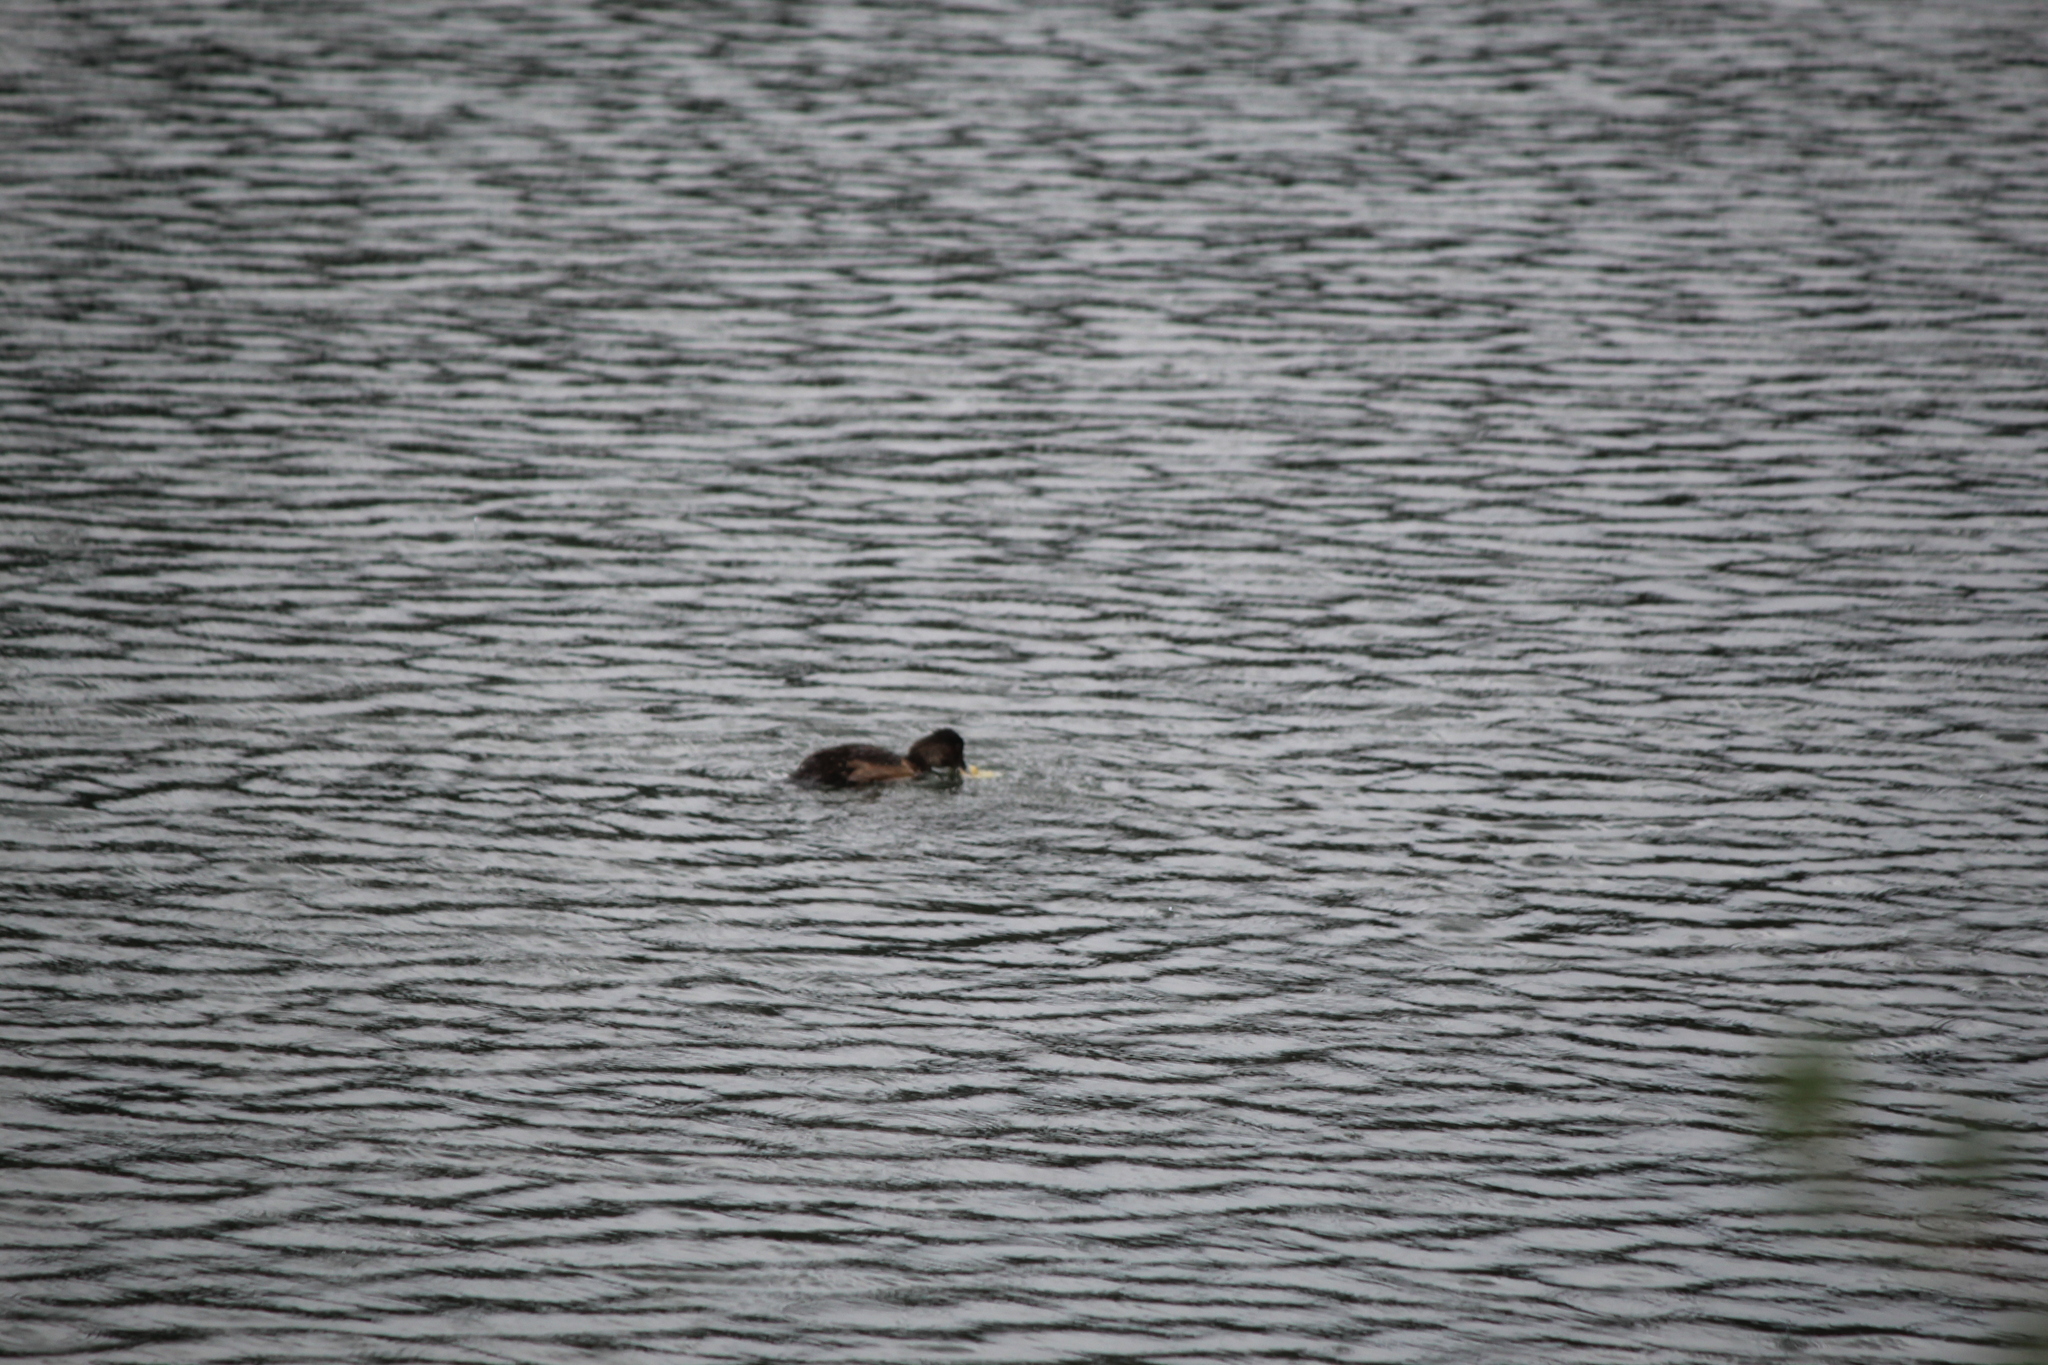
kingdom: Animalia
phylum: Chordata
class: Aves
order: Anseriformes
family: Anatidae
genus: Aythya
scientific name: Aythya collaris
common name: Ring-necked duck
